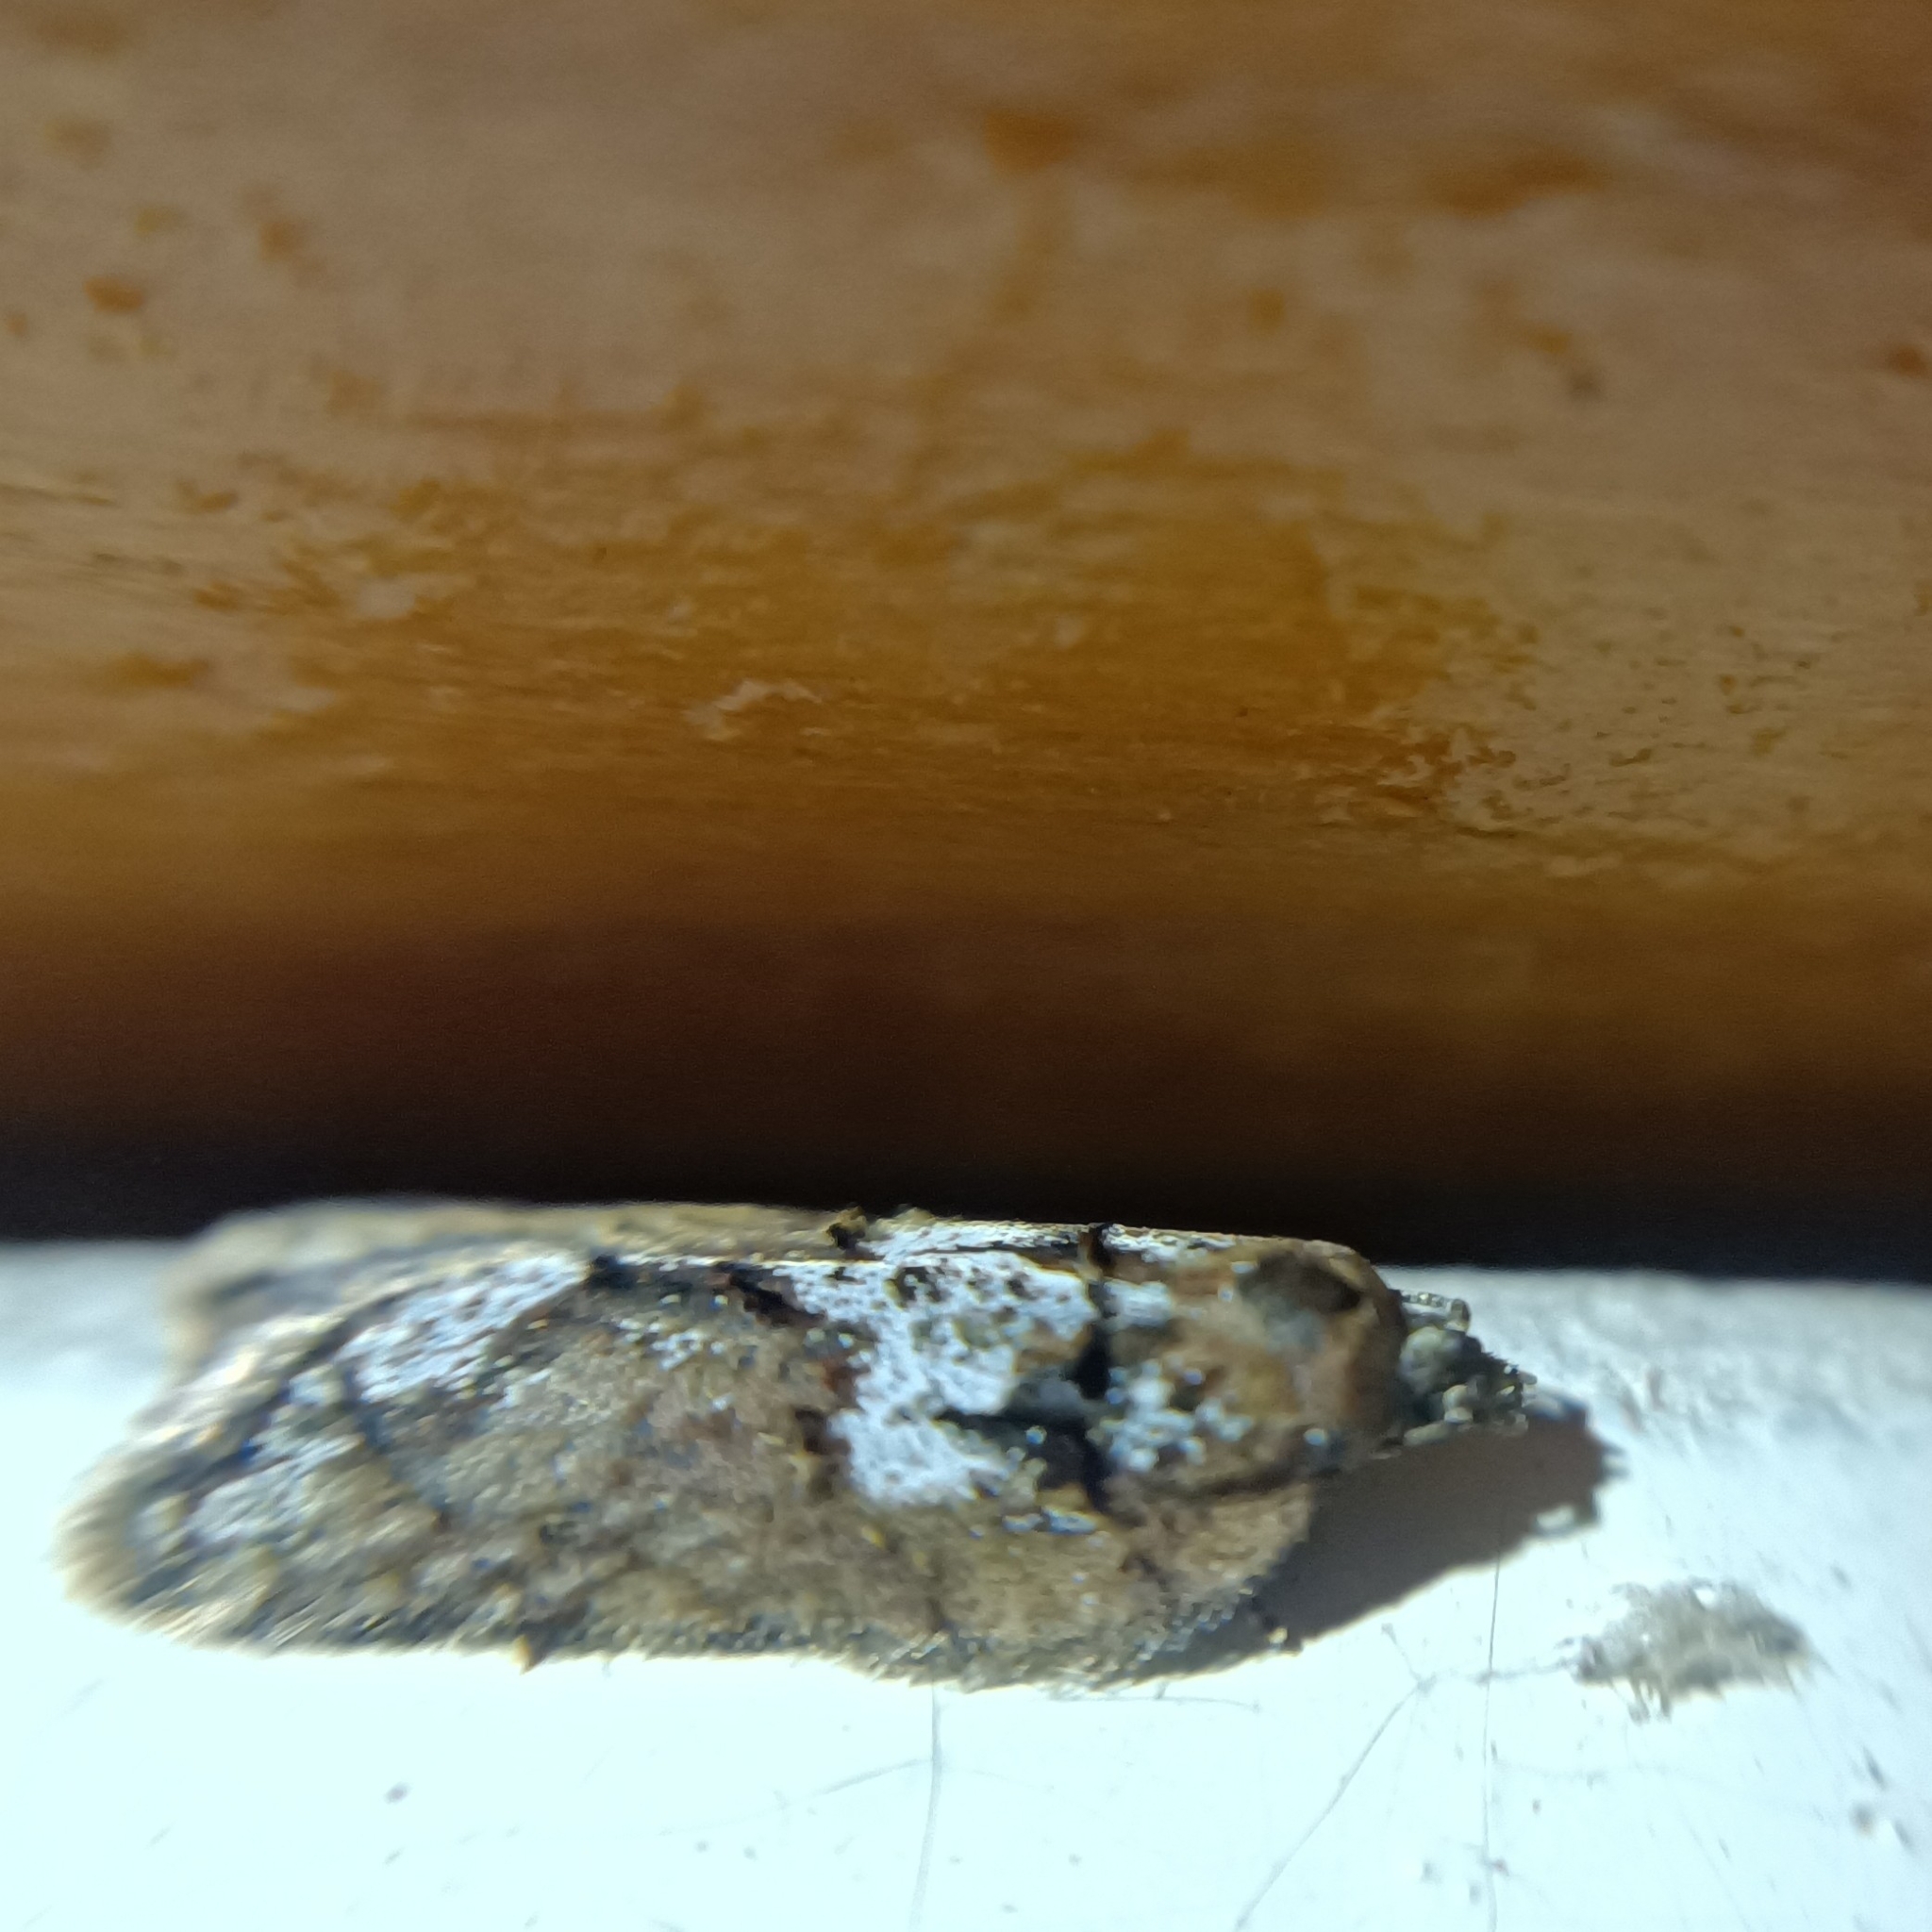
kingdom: Animalia
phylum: Arthropoda
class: Insecta
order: Lepidoptera
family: Tortricidae
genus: Acleris
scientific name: Acleris abietana
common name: Perth button
